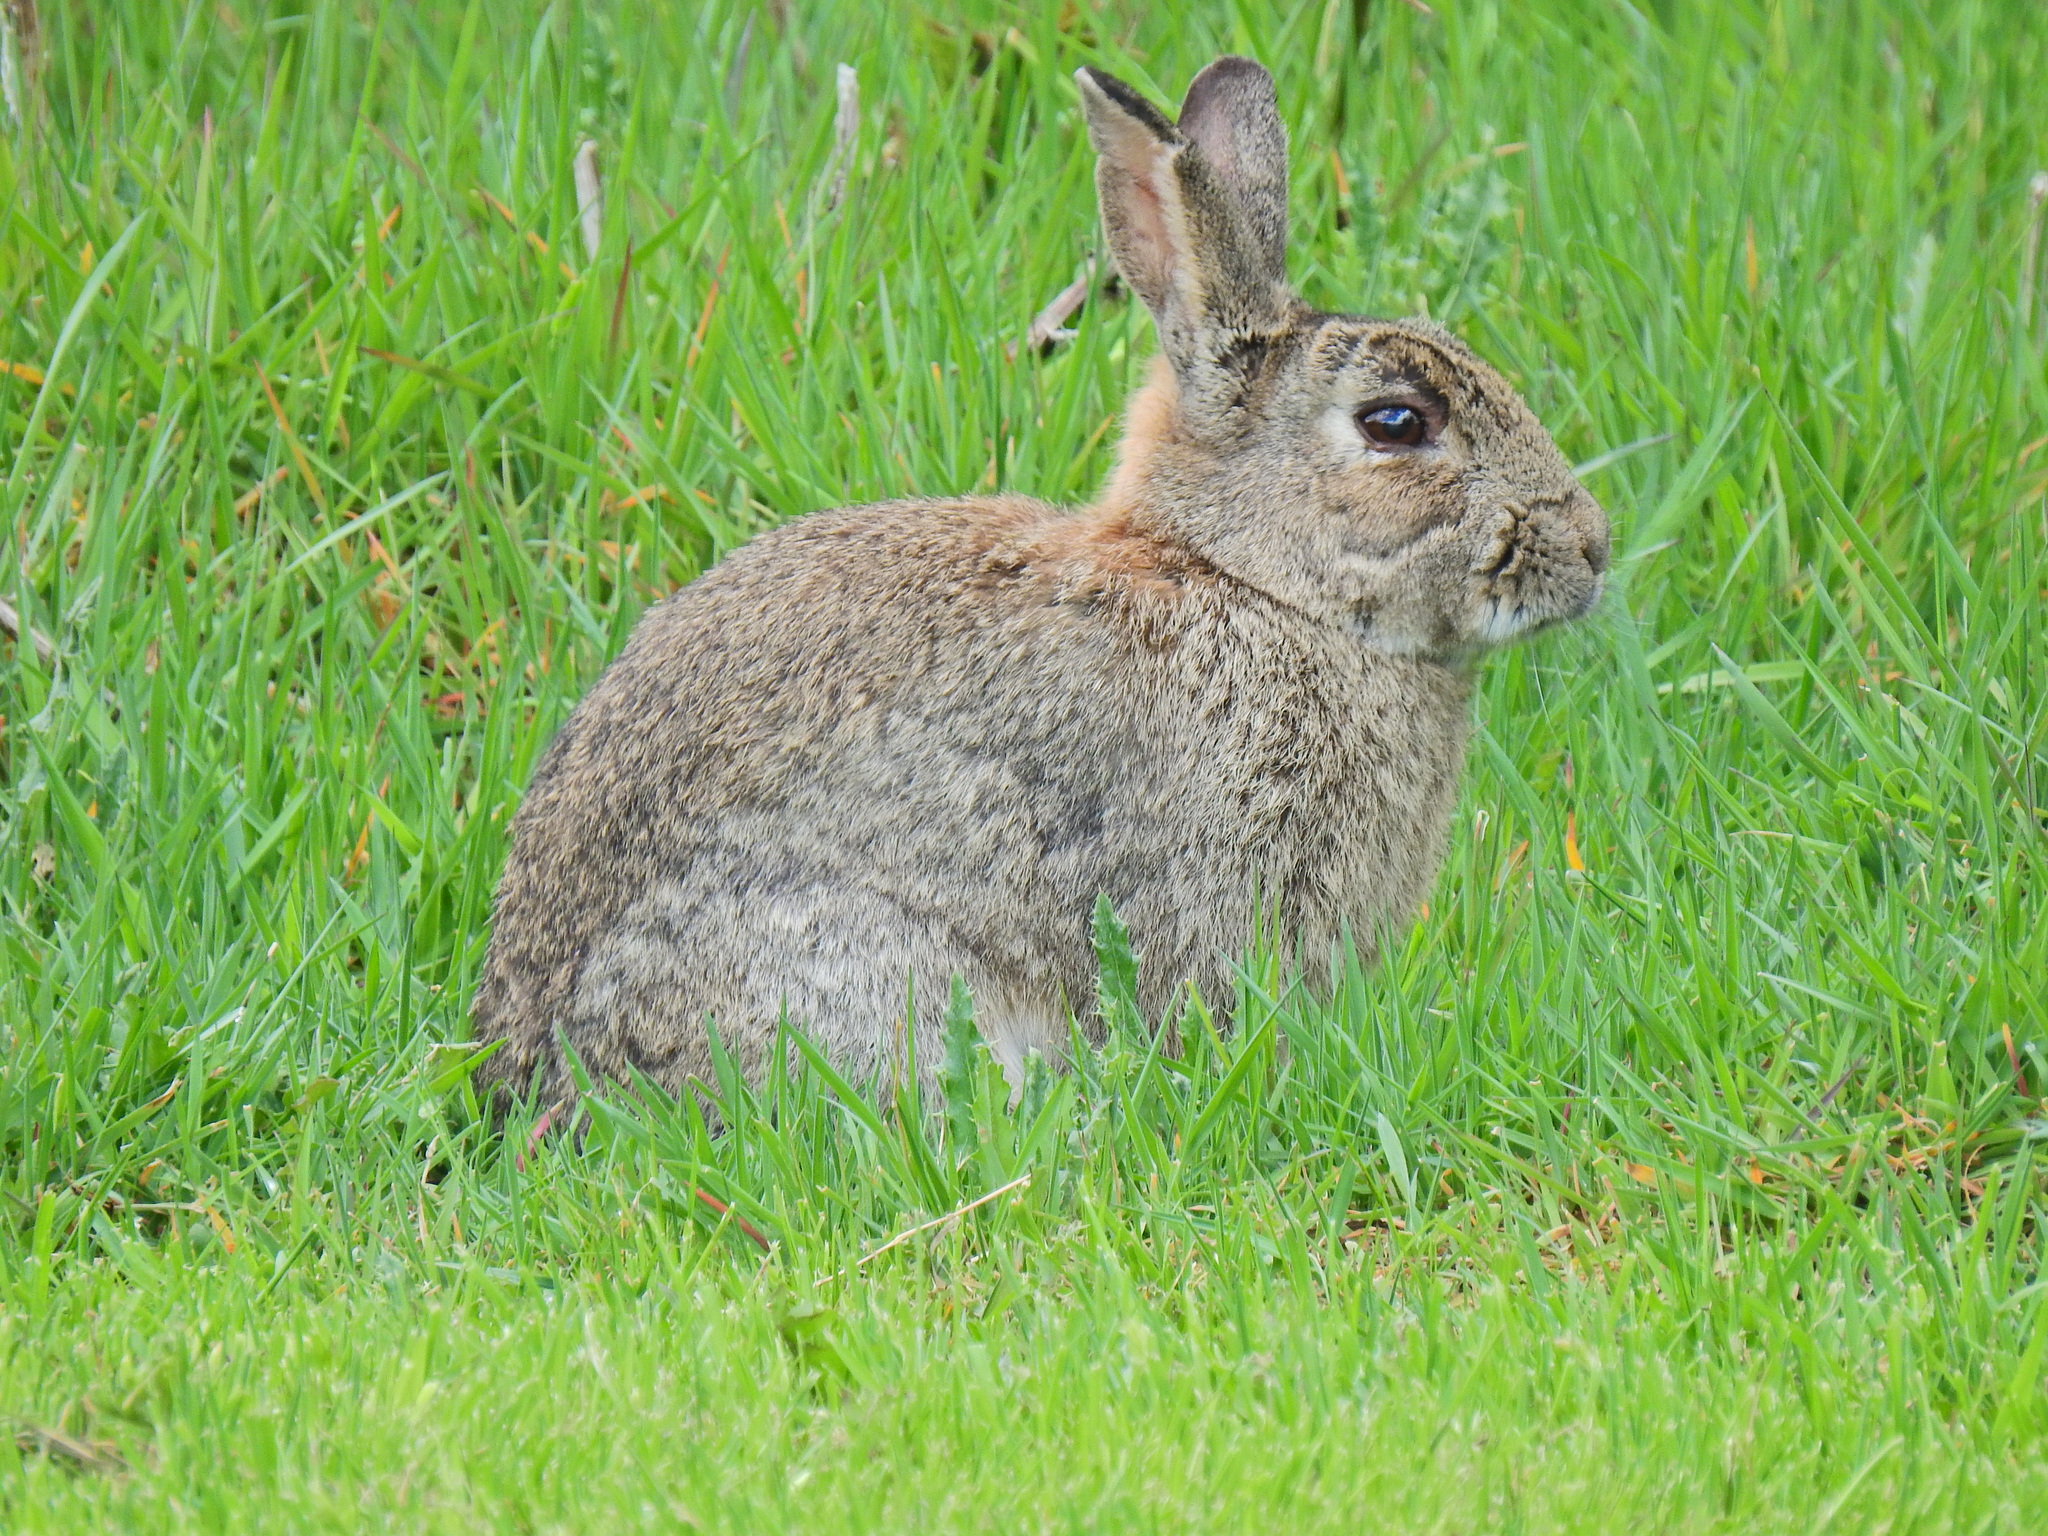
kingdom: Animalia
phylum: Chordata
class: Mammalia
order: Lagomorpha
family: Leporidae
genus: Oryctolagus
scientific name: Oryctolagus cuniculus
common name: European rabbit
